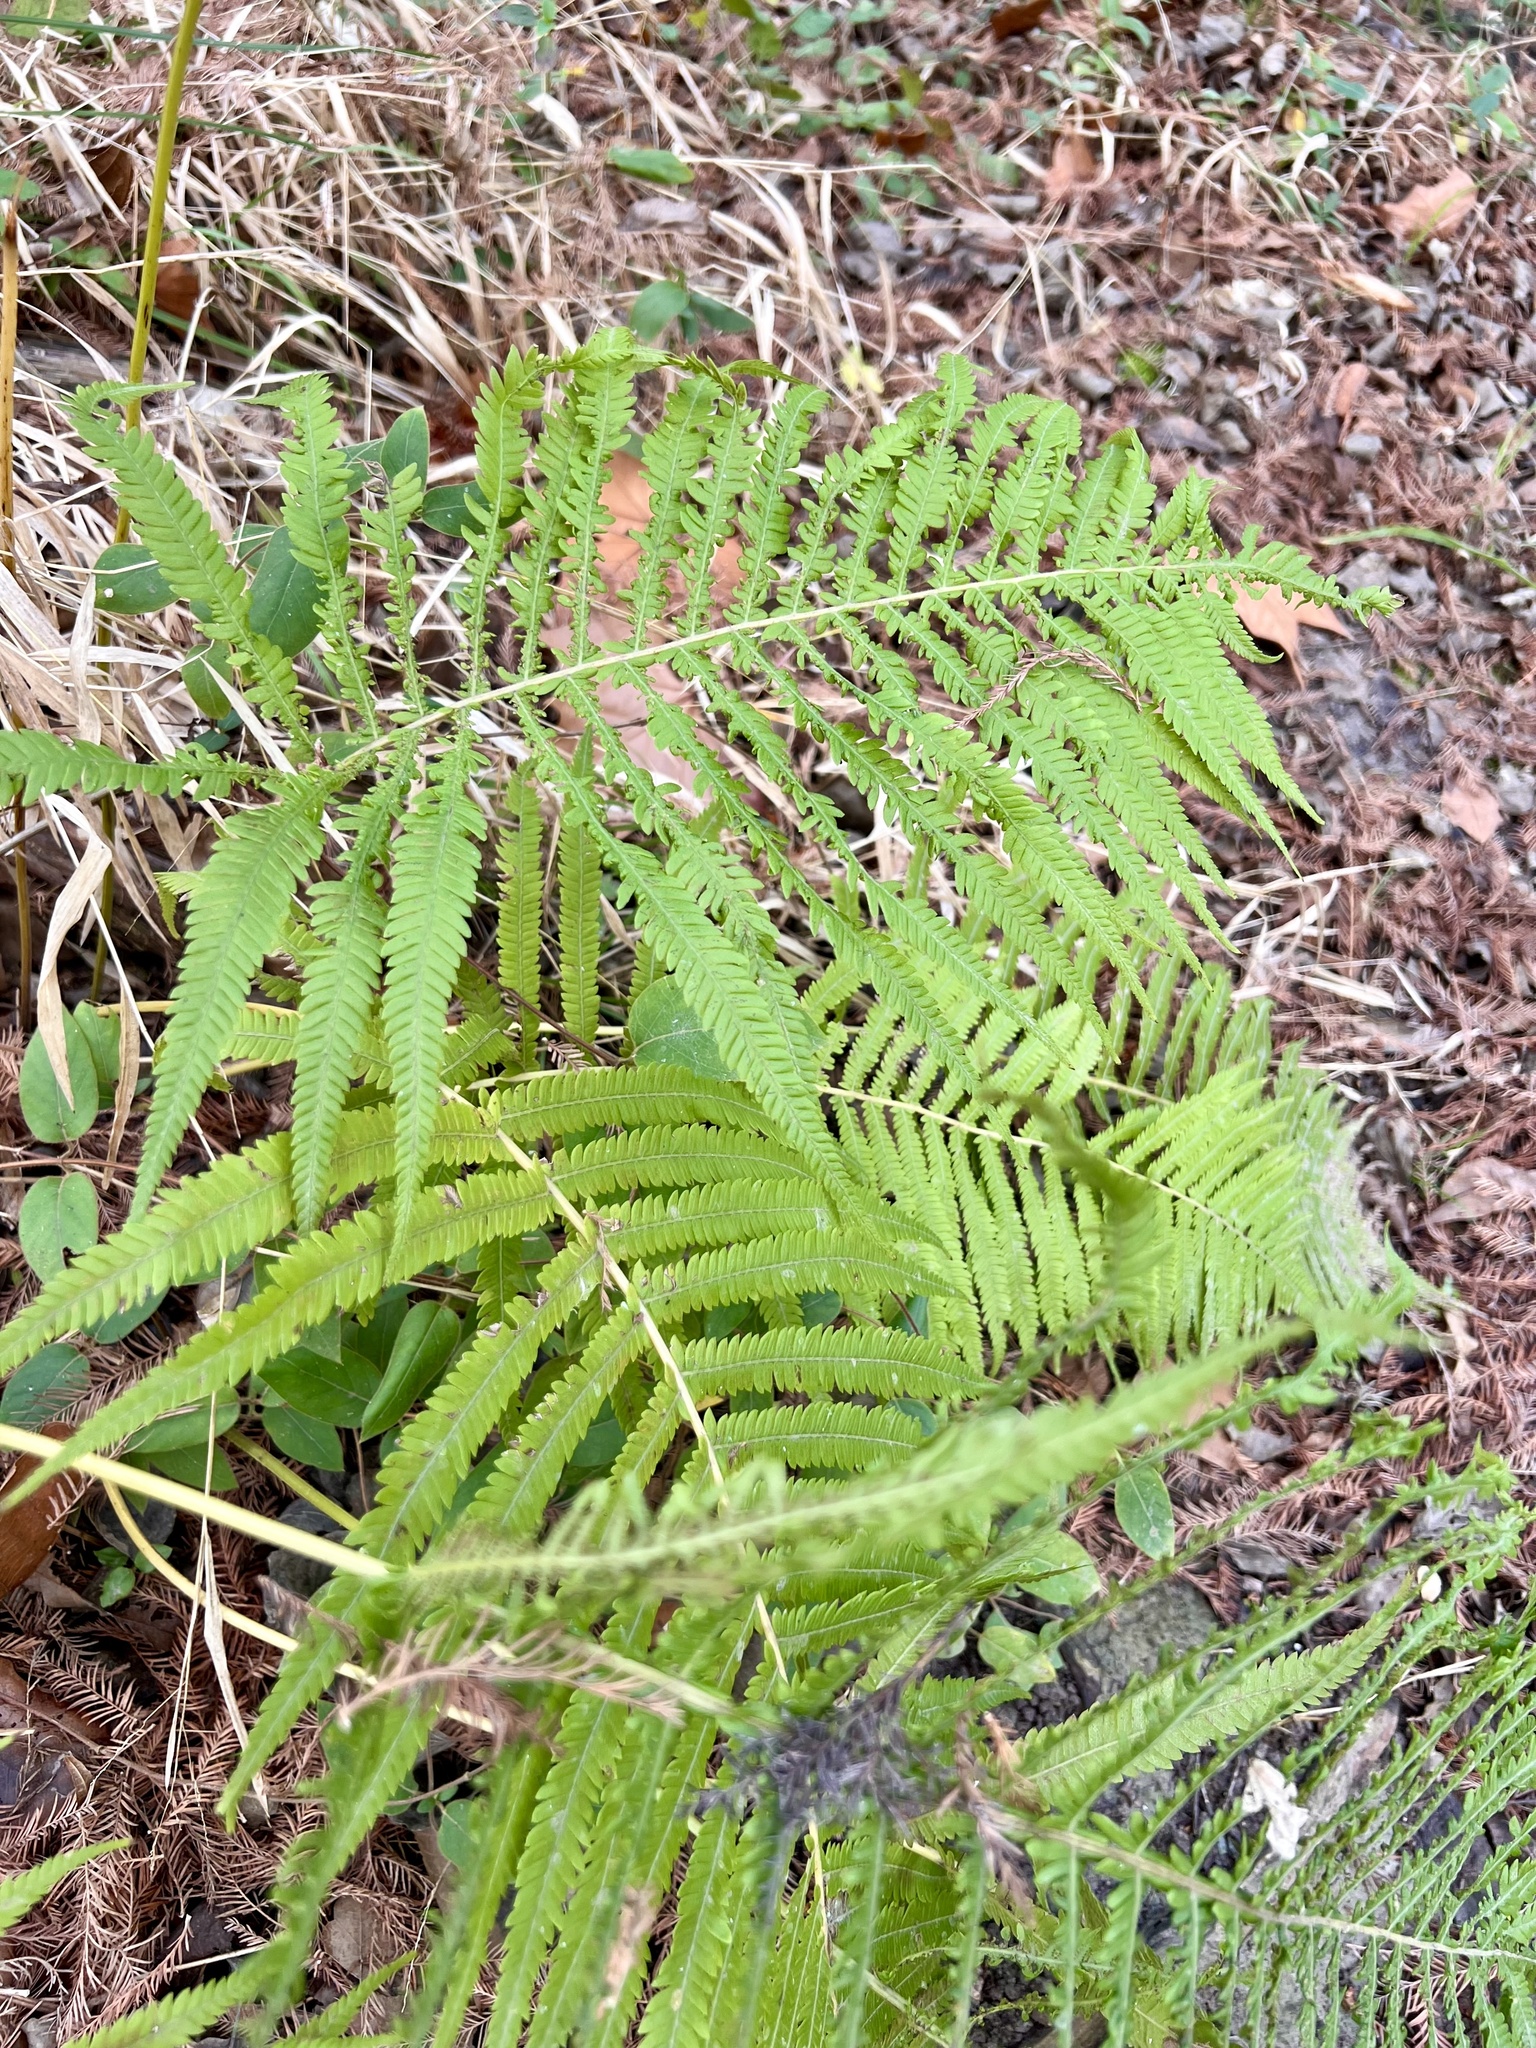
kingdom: Plantae
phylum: Tracheophyta
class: Polypodiopsida
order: Polypodiales
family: Thelypteridaceae
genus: Pelazoneuron
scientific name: Pelazoneuron ovatum
